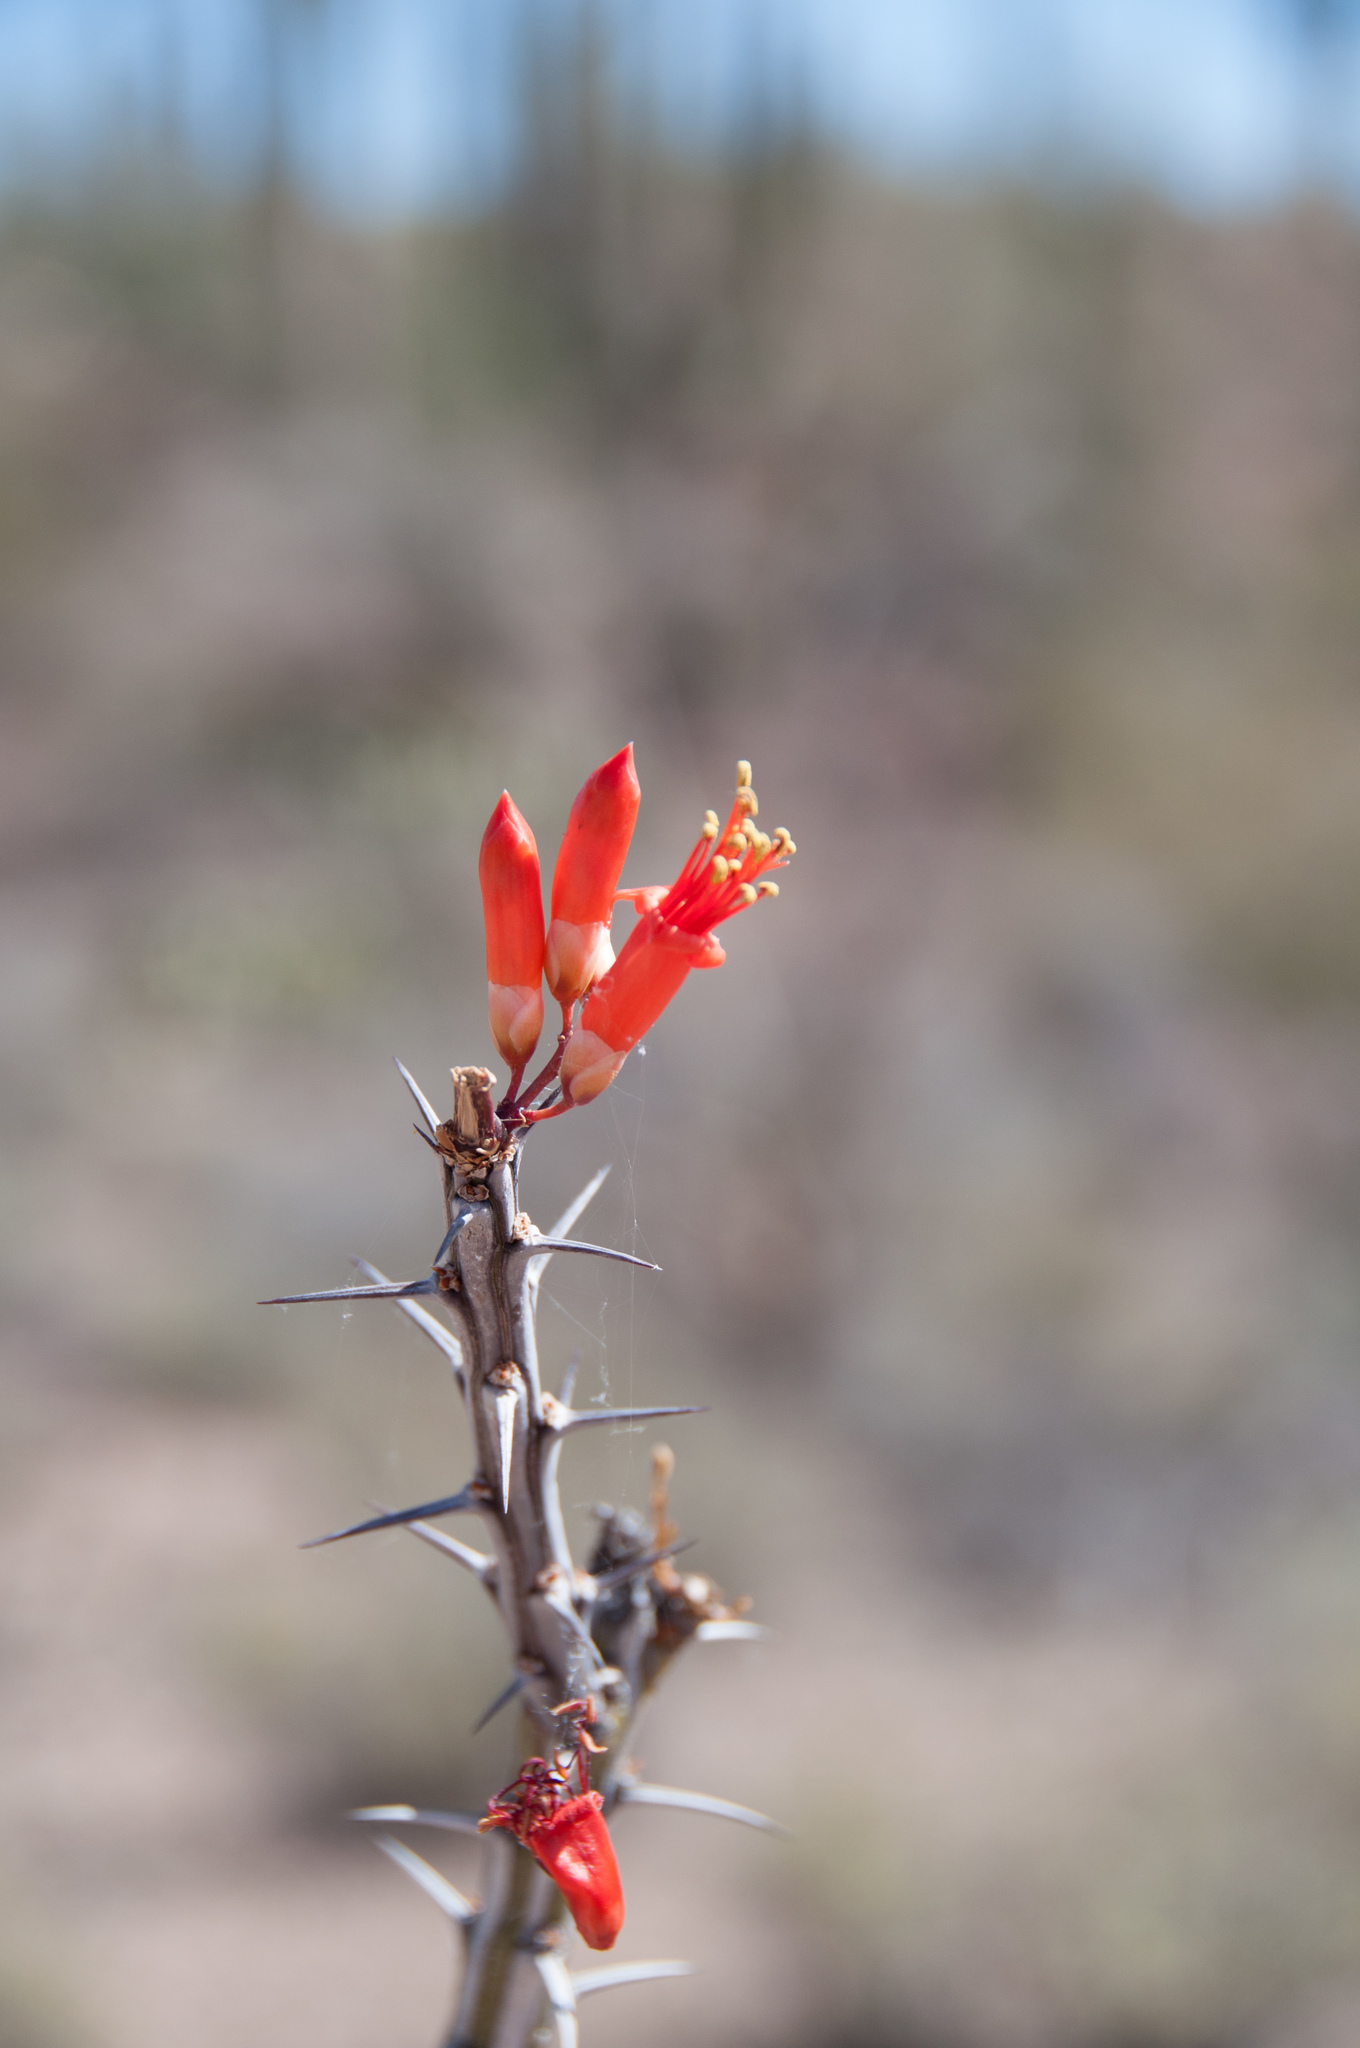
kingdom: Plantae
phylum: Tracheophyta
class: Magnoliopsida
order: Ericales
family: Fouquieriaceae
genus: Fouquieria
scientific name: Fouquieria splendens
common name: Vine-cactus
